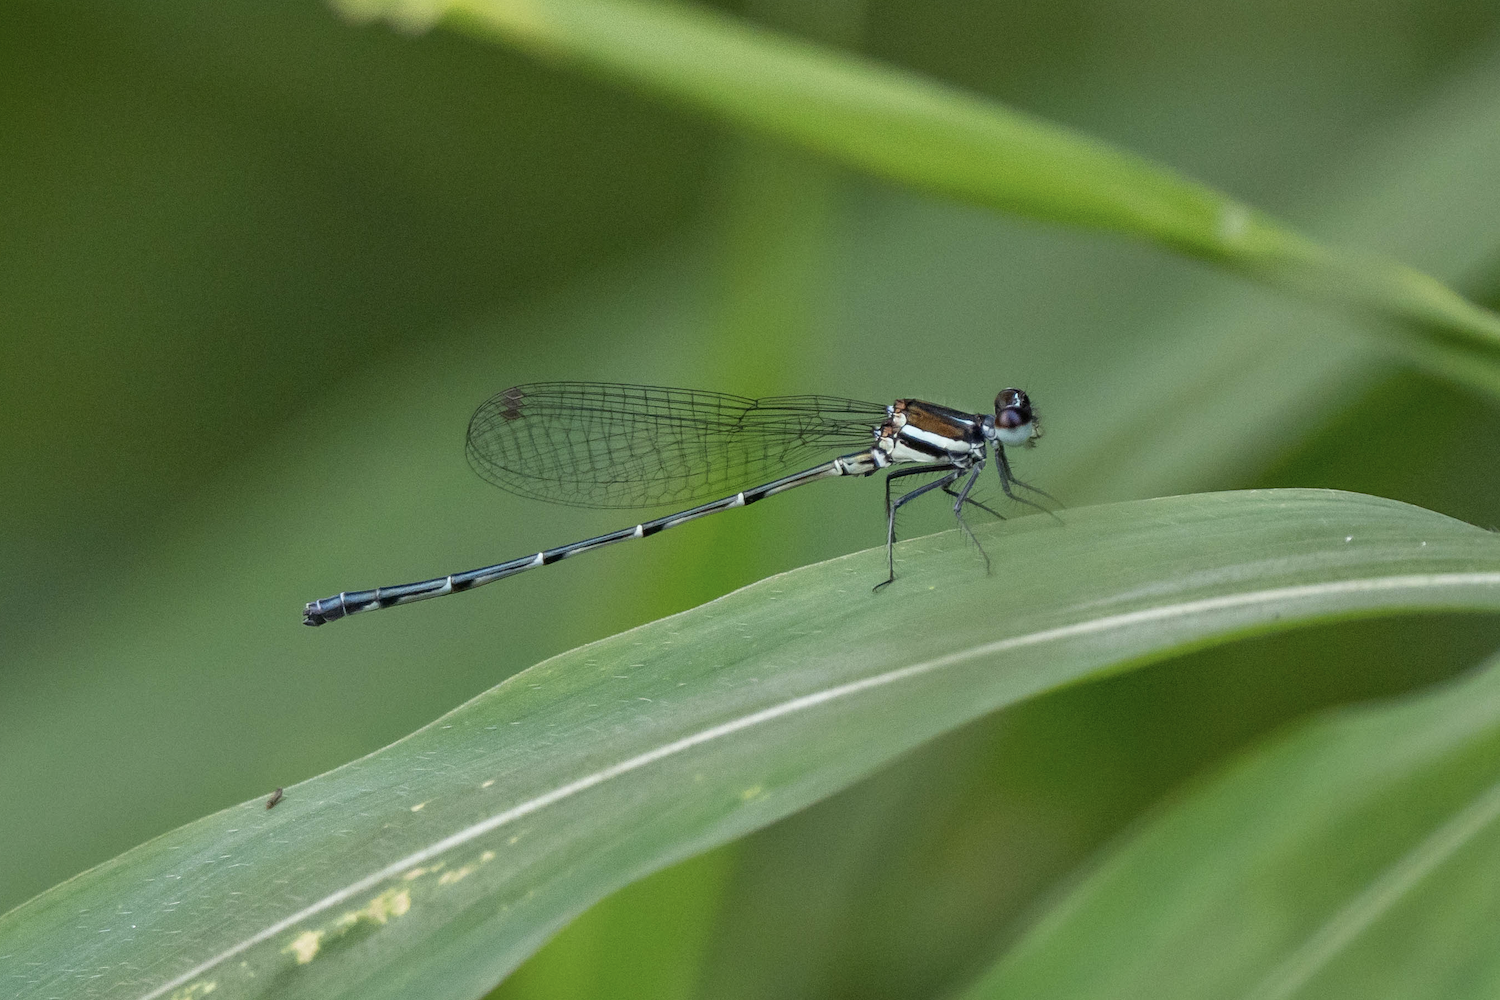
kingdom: Animalia
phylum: Arthropoda
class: Insecta
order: Odonata
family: Platycnemididae
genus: Onychargia
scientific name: Onychargia atrocyana
